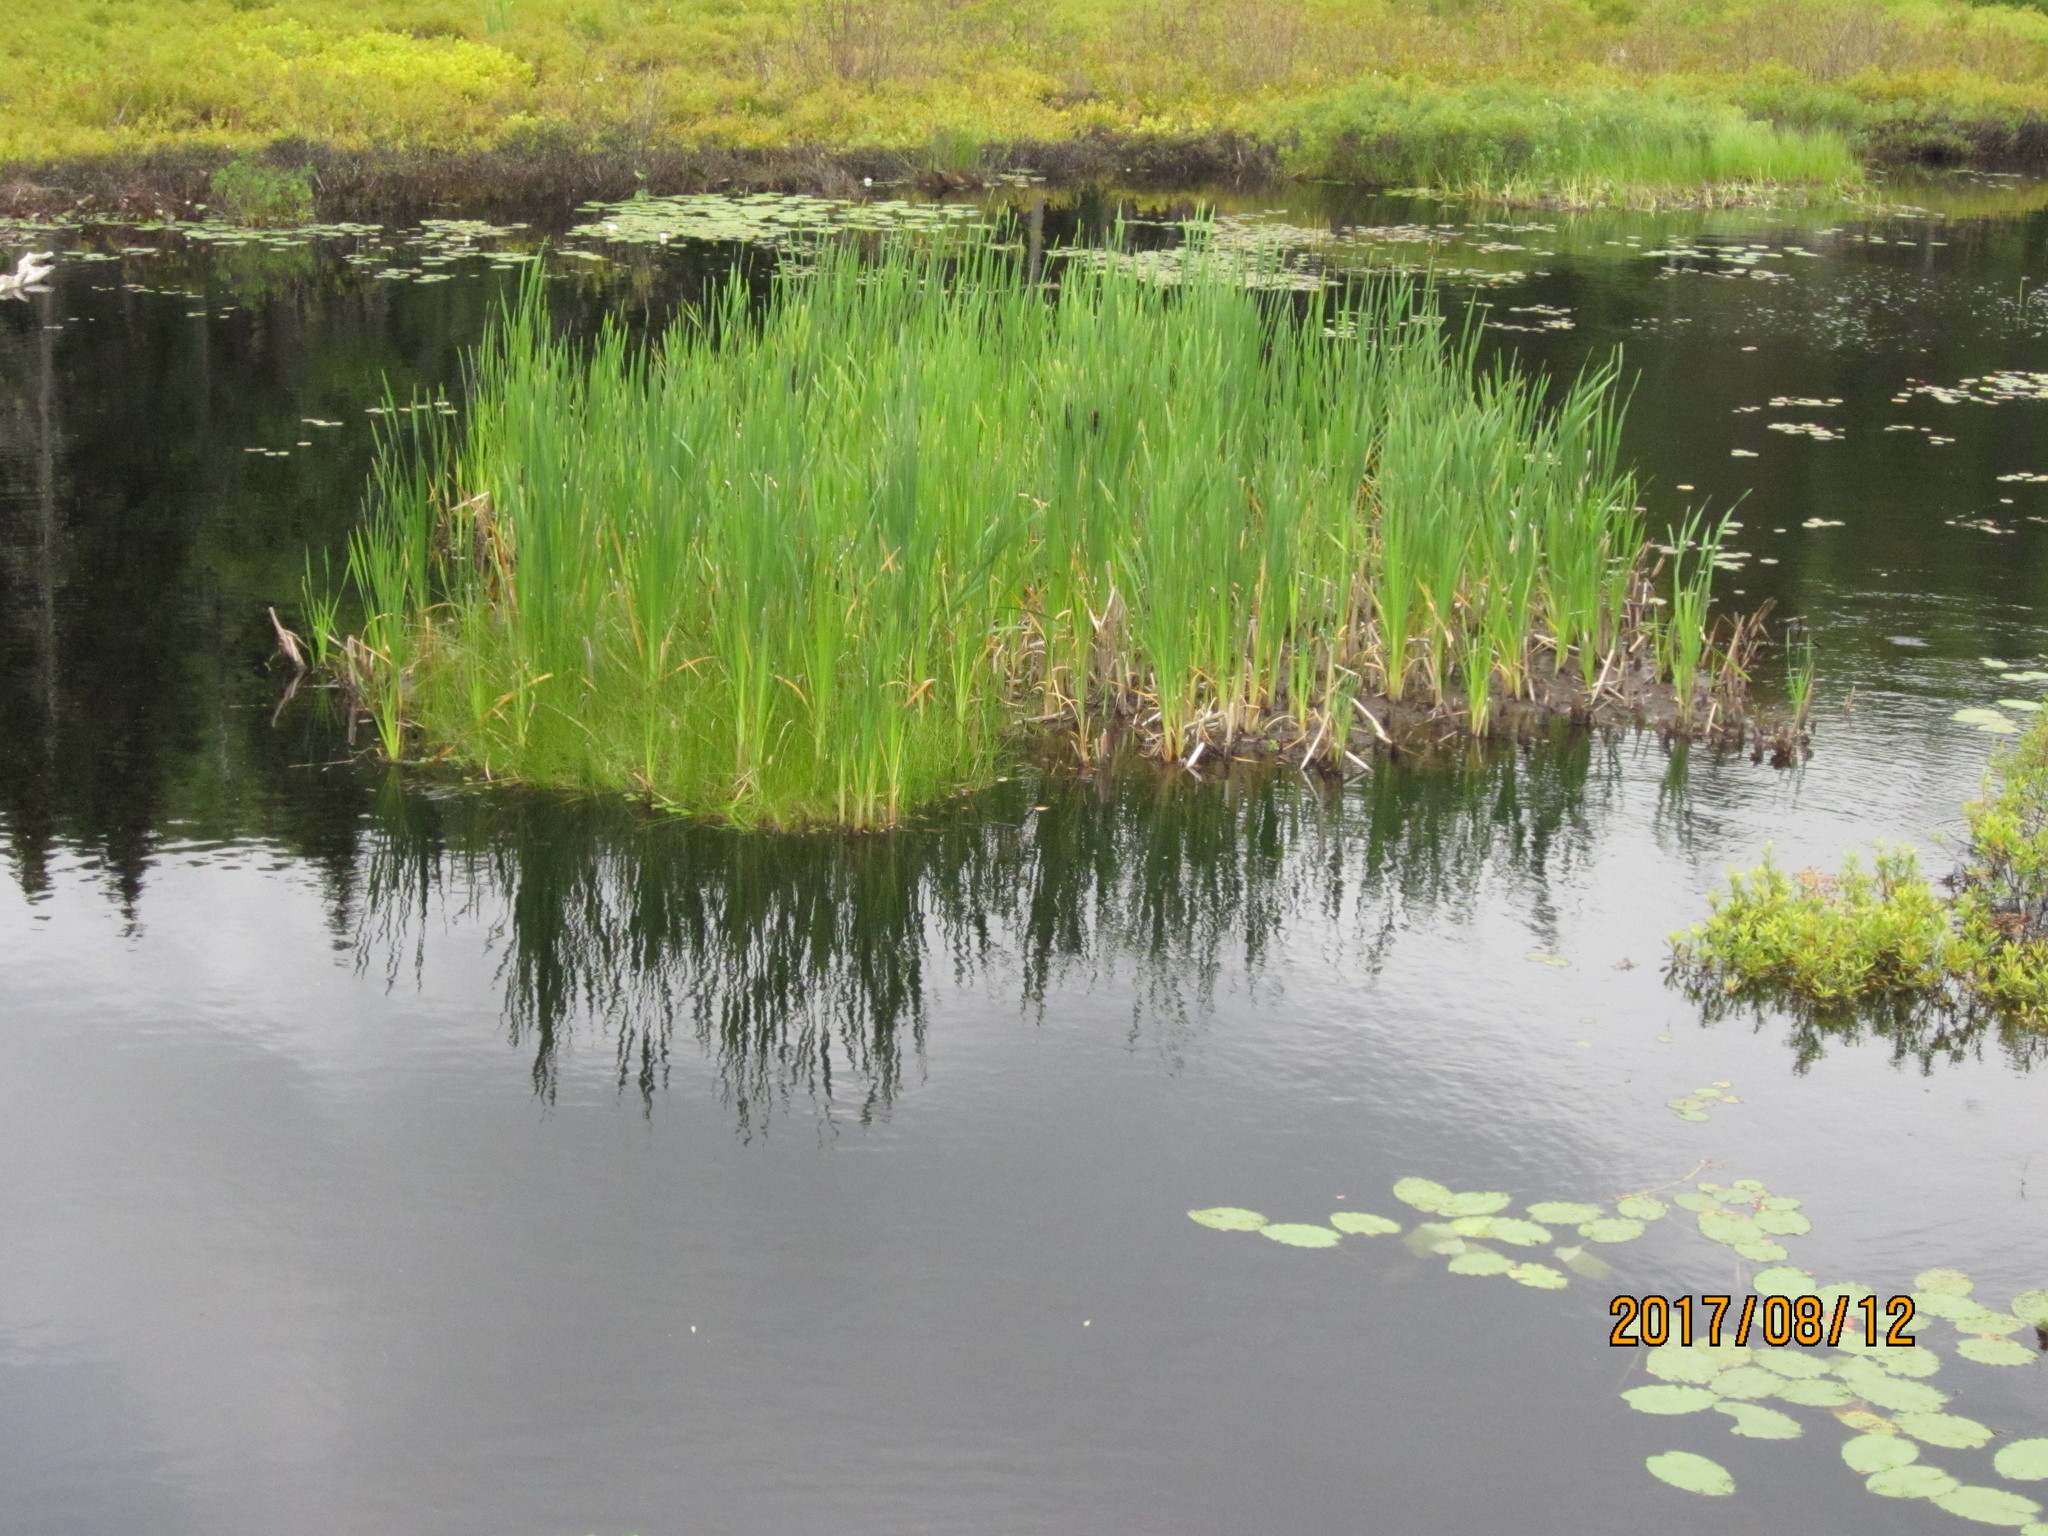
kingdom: Plantae
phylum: Tracheophyta
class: Liliopsida
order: Poales
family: Typhaceae
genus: Typha
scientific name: Typha latifolia
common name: Broadleaf cattail
